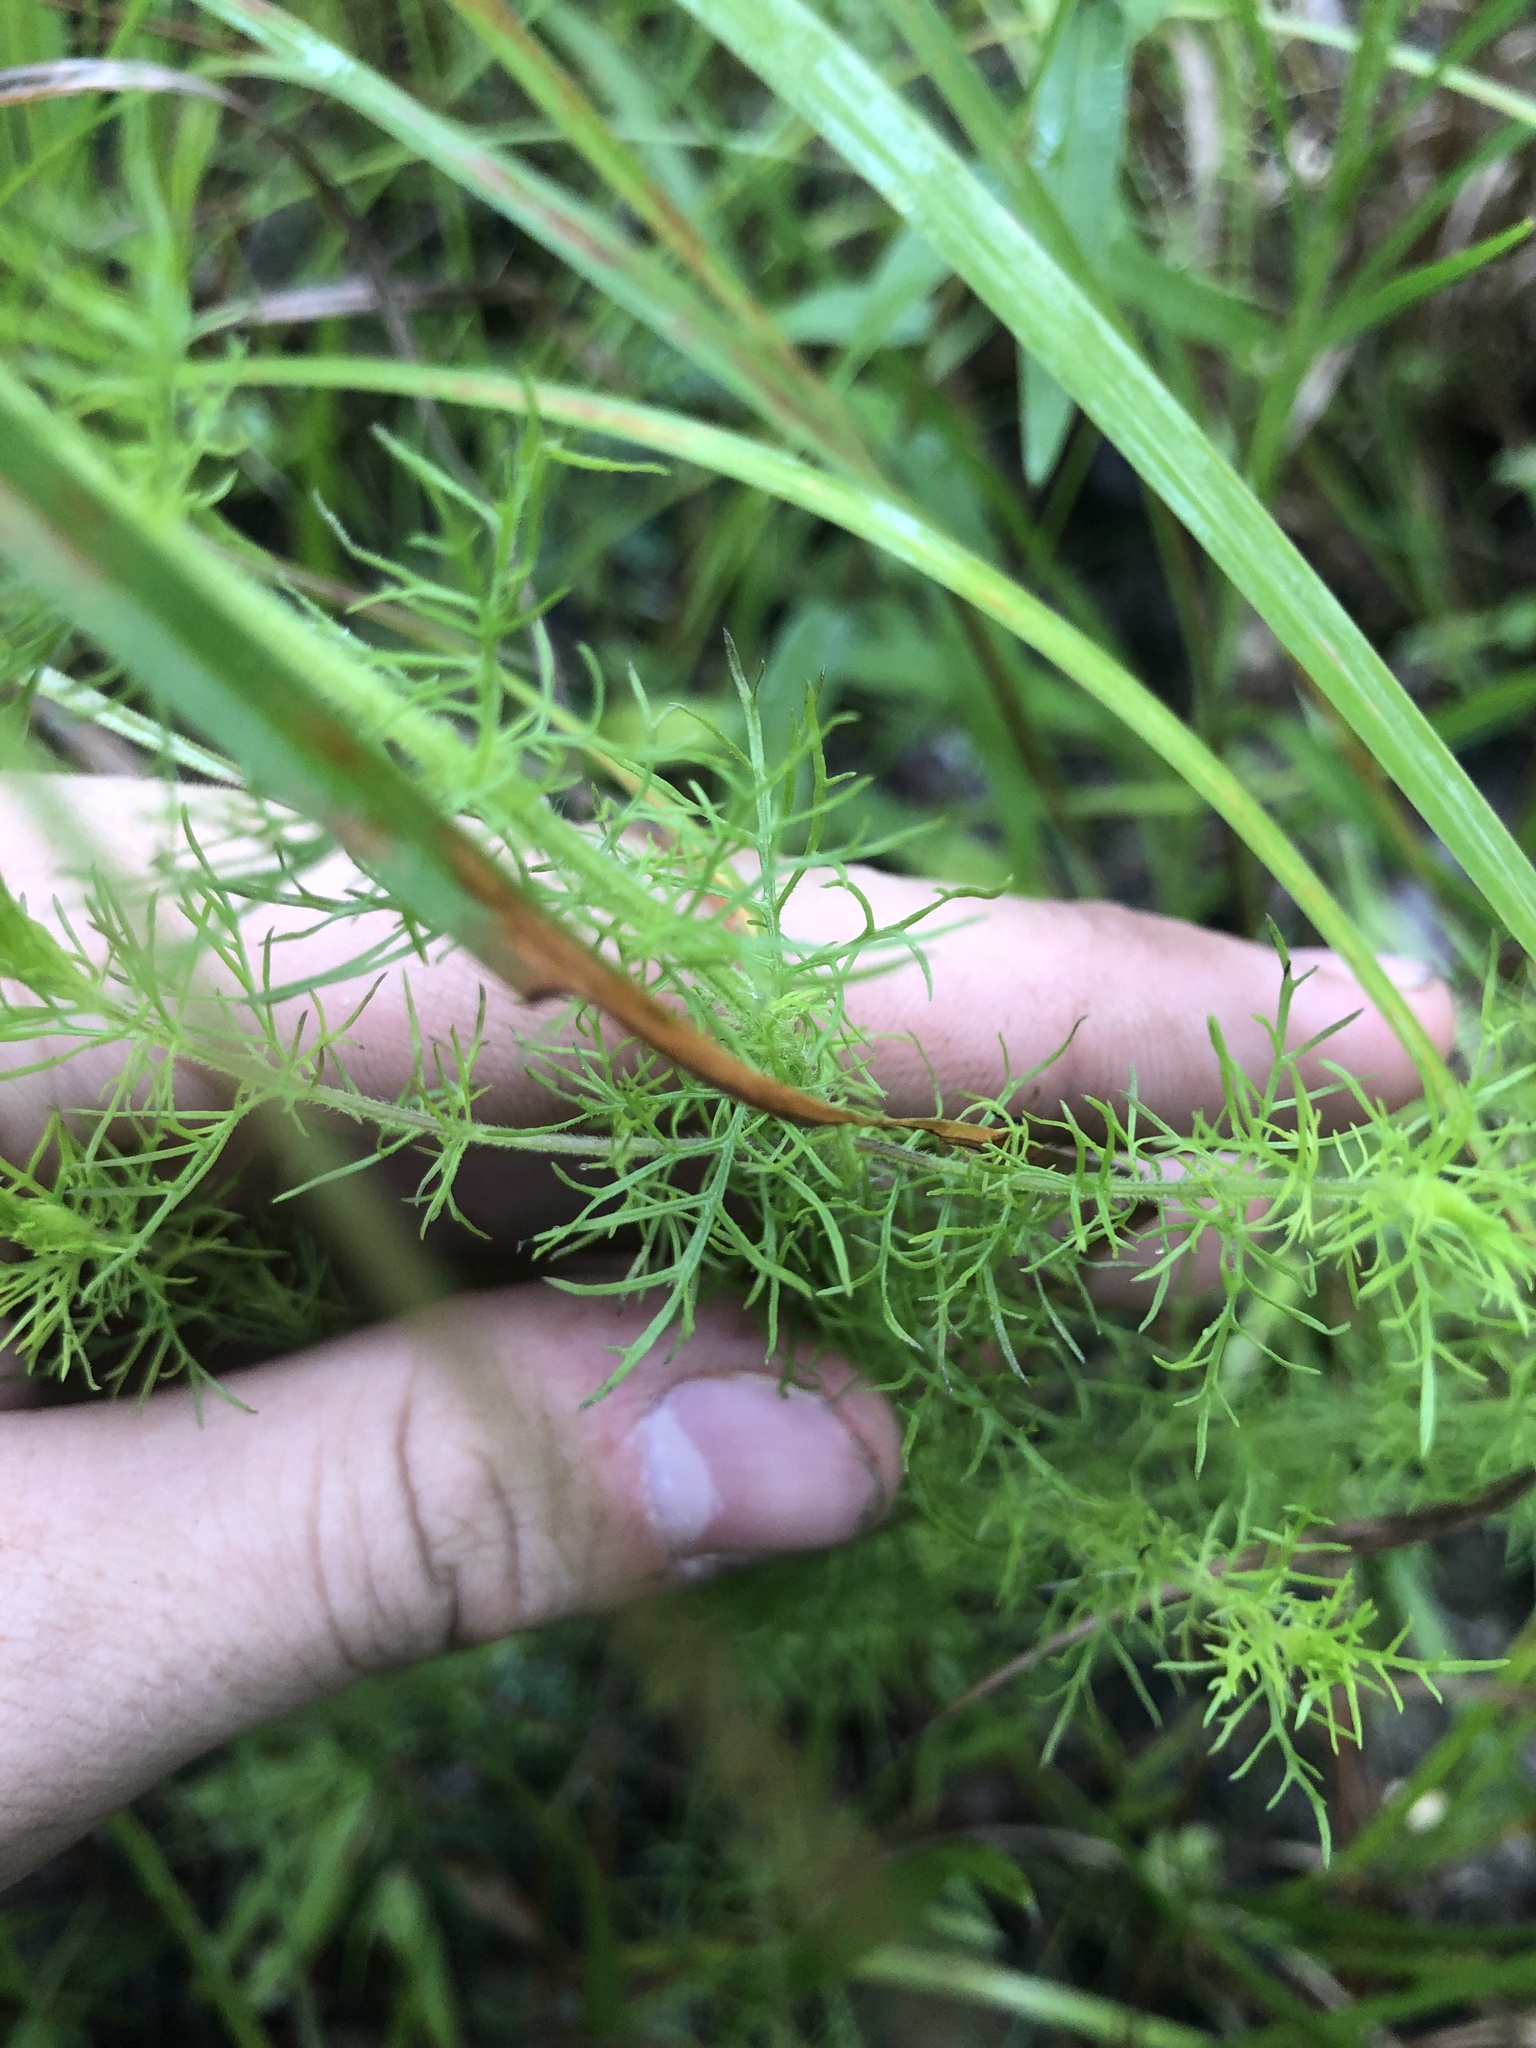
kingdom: Plantae
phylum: Tracheophyta
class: Magnoliopsida
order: Lamiales
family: Orobanchaceae
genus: Seymeria
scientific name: Seymeria cassioides
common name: Yaupon black-senna
